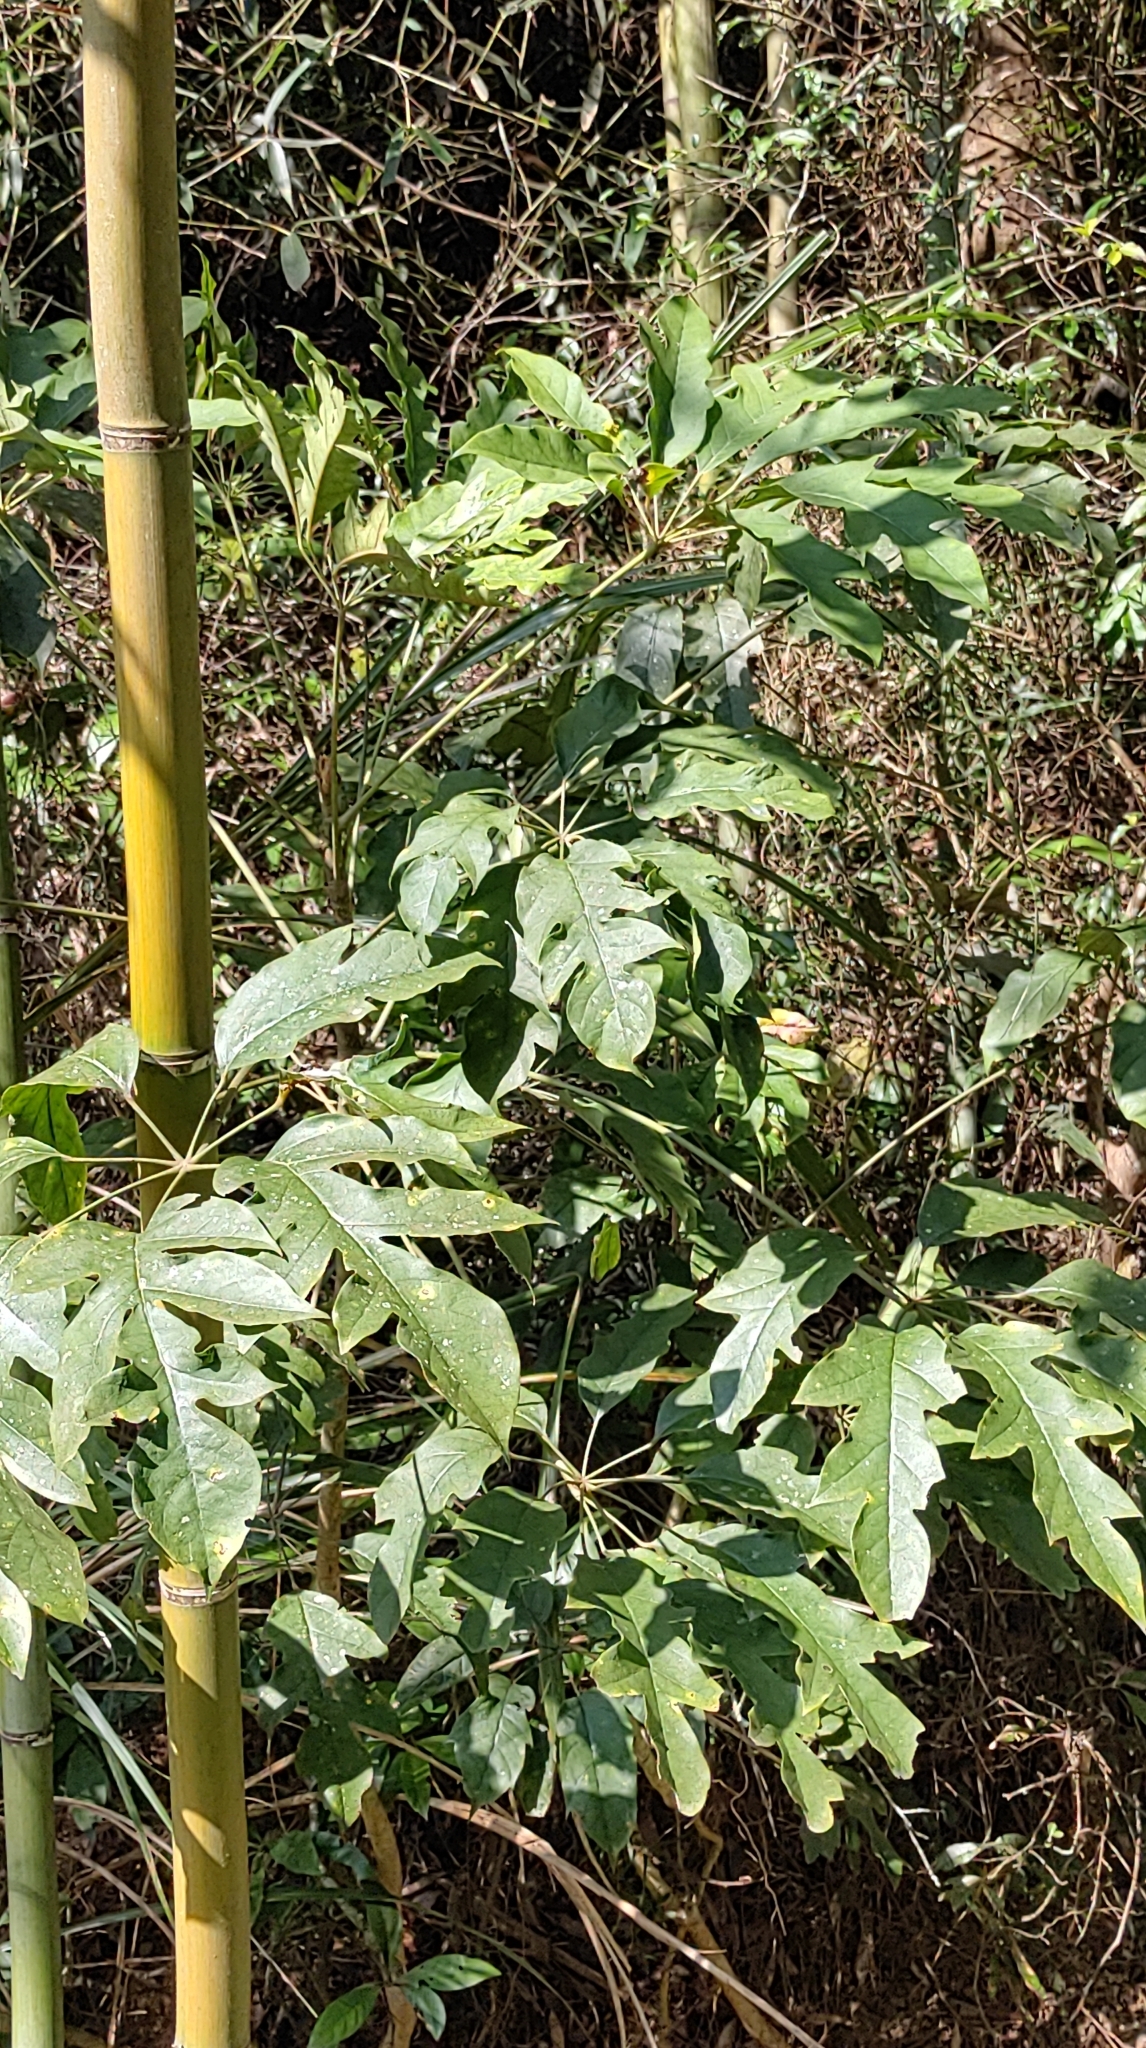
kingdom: Plantae
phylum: Tracheophyta
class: Magnoliopsida
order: Apiales
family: Araliaceae
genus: Heptapleurum
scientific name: Heptapleurum heptaphyllum
